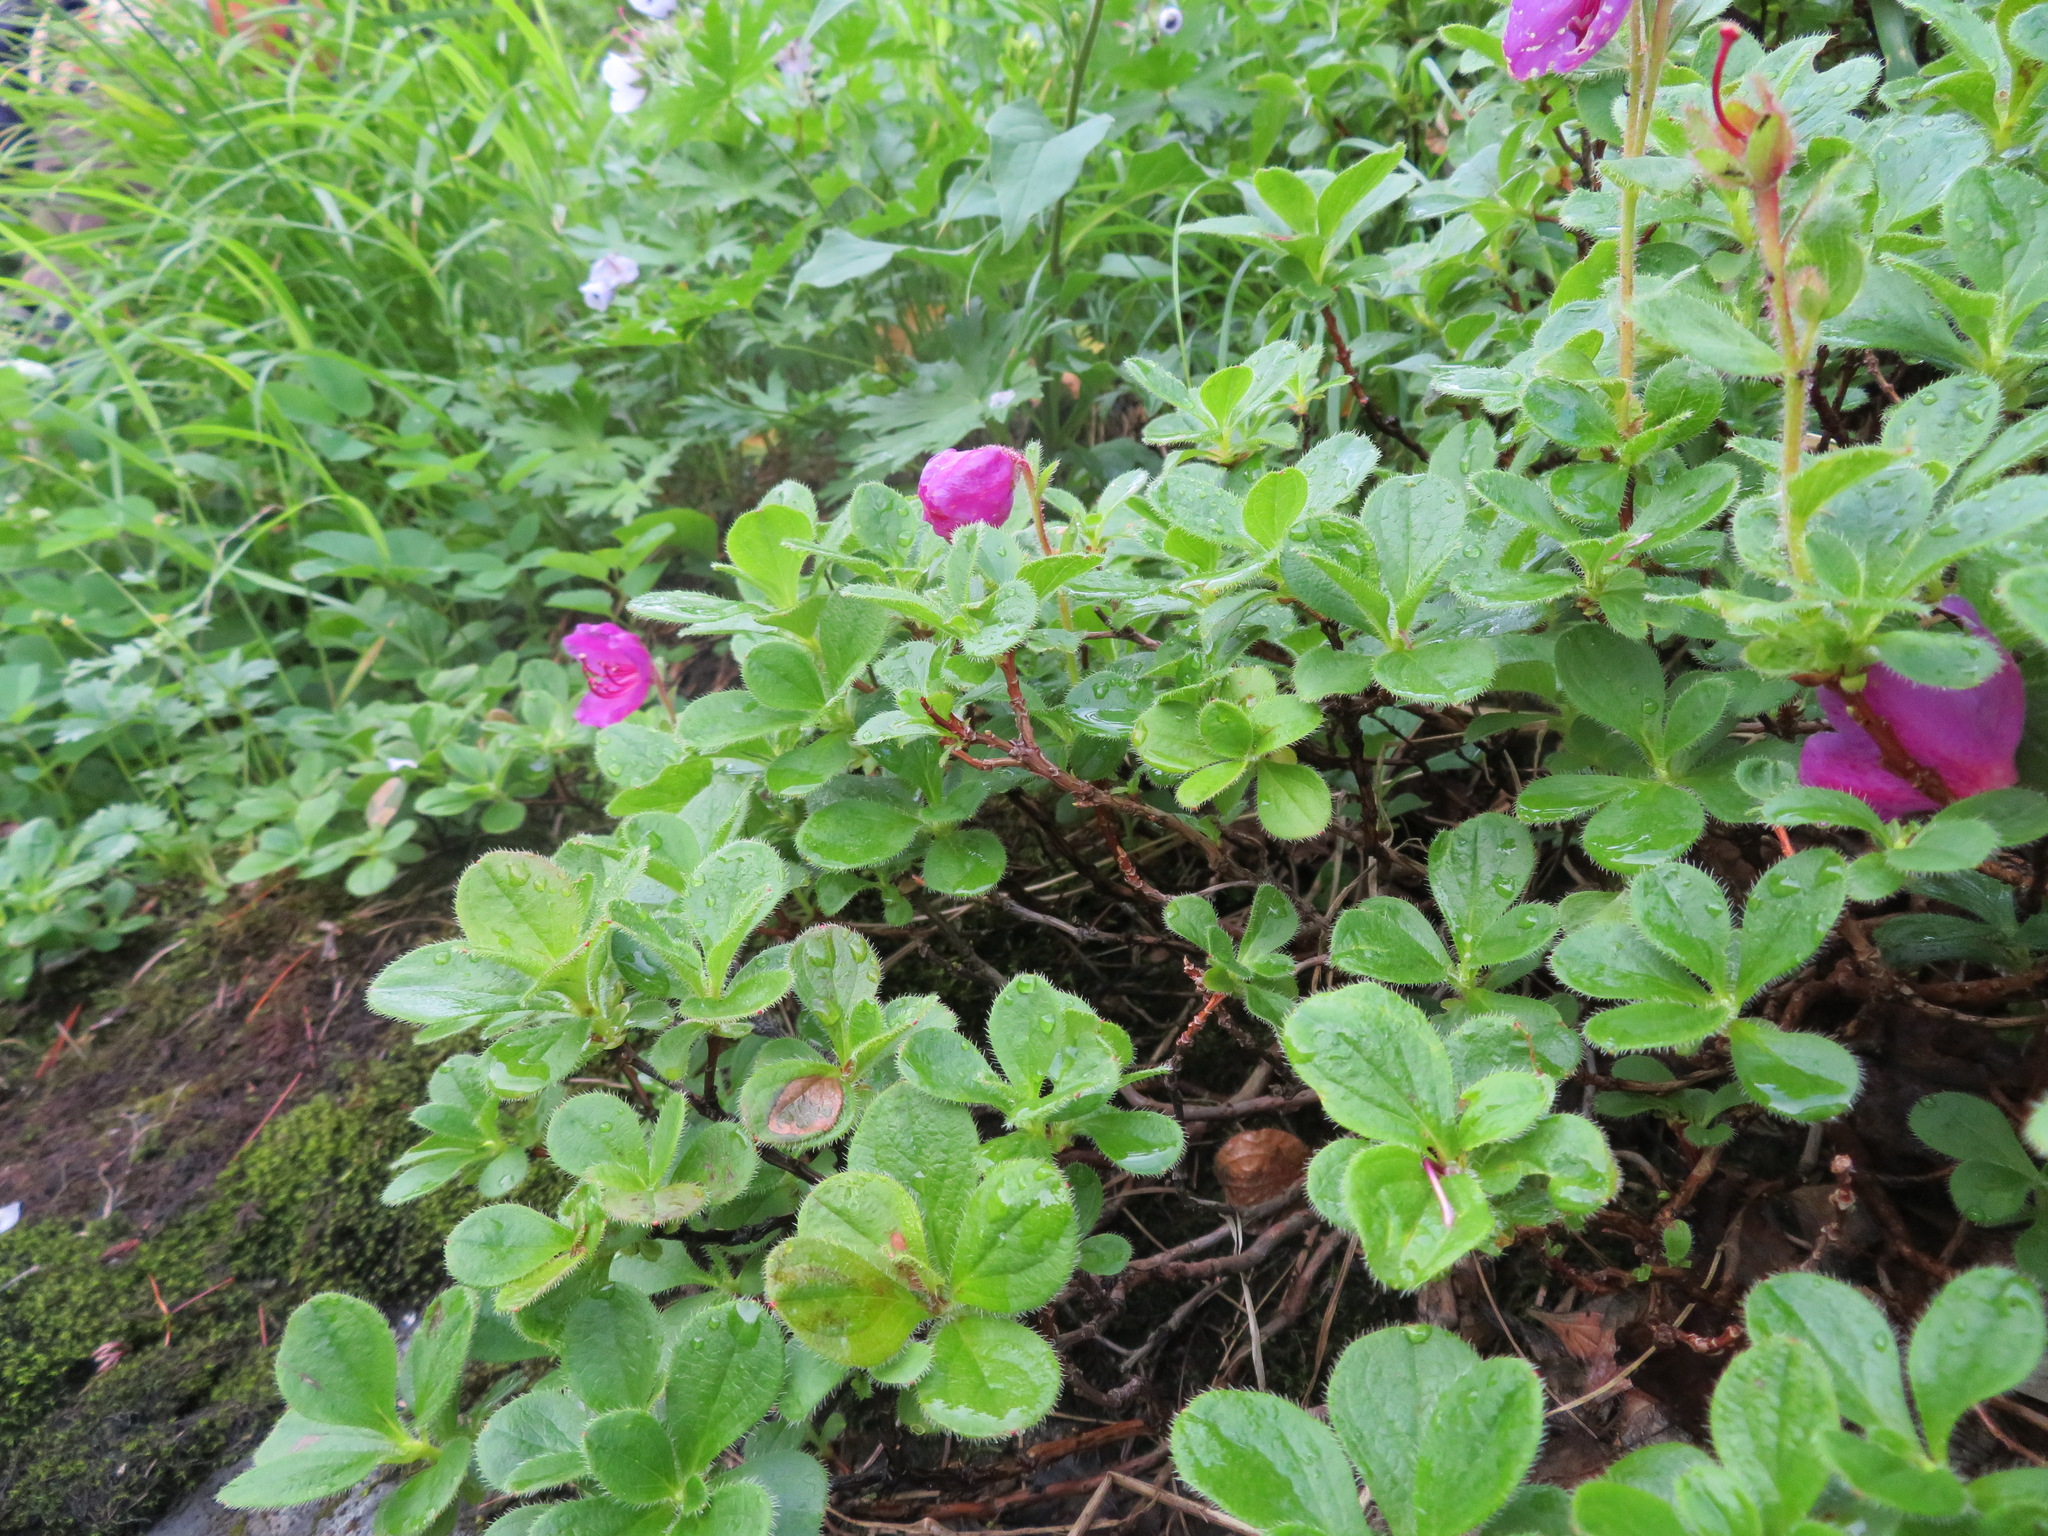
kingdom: Plantae
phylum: Tracheophyta
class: Magnoliopsida
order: Ericales
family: Ericaceae
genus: Rhododendron
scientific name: Rhododendron camtschaticum
